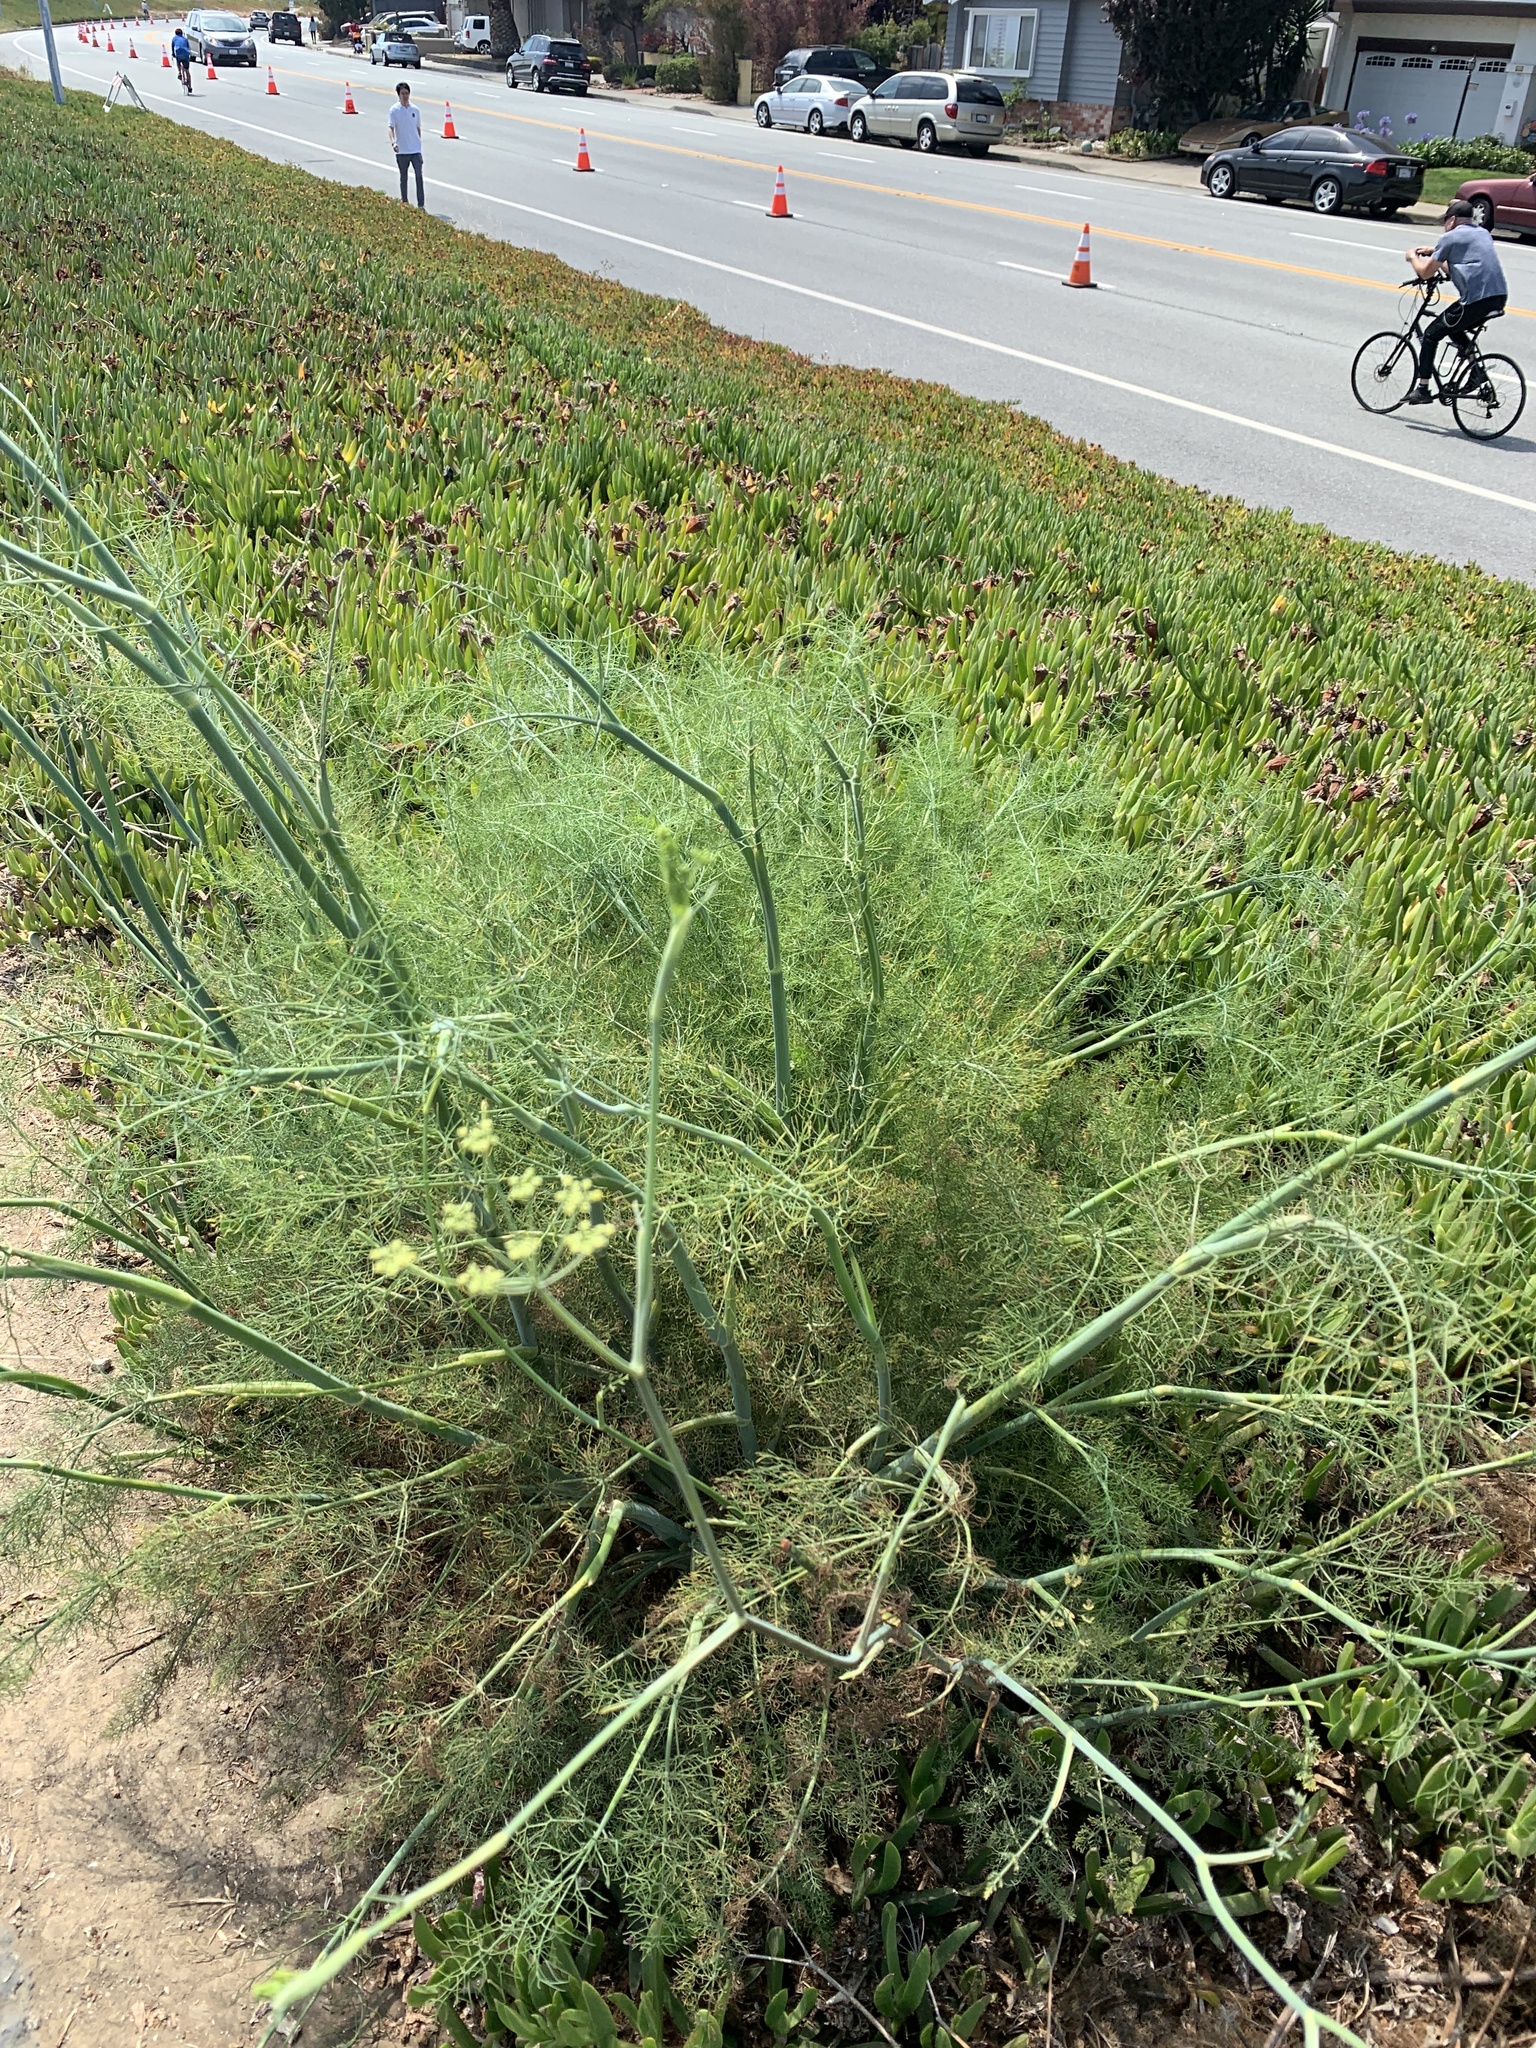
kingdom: Plantae
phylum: Tracheophyta
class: Magnoliopsida
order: Apiales
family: Apiaceae
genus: Foeniculum
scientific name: Foeniculum vulgare
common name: Fennel
